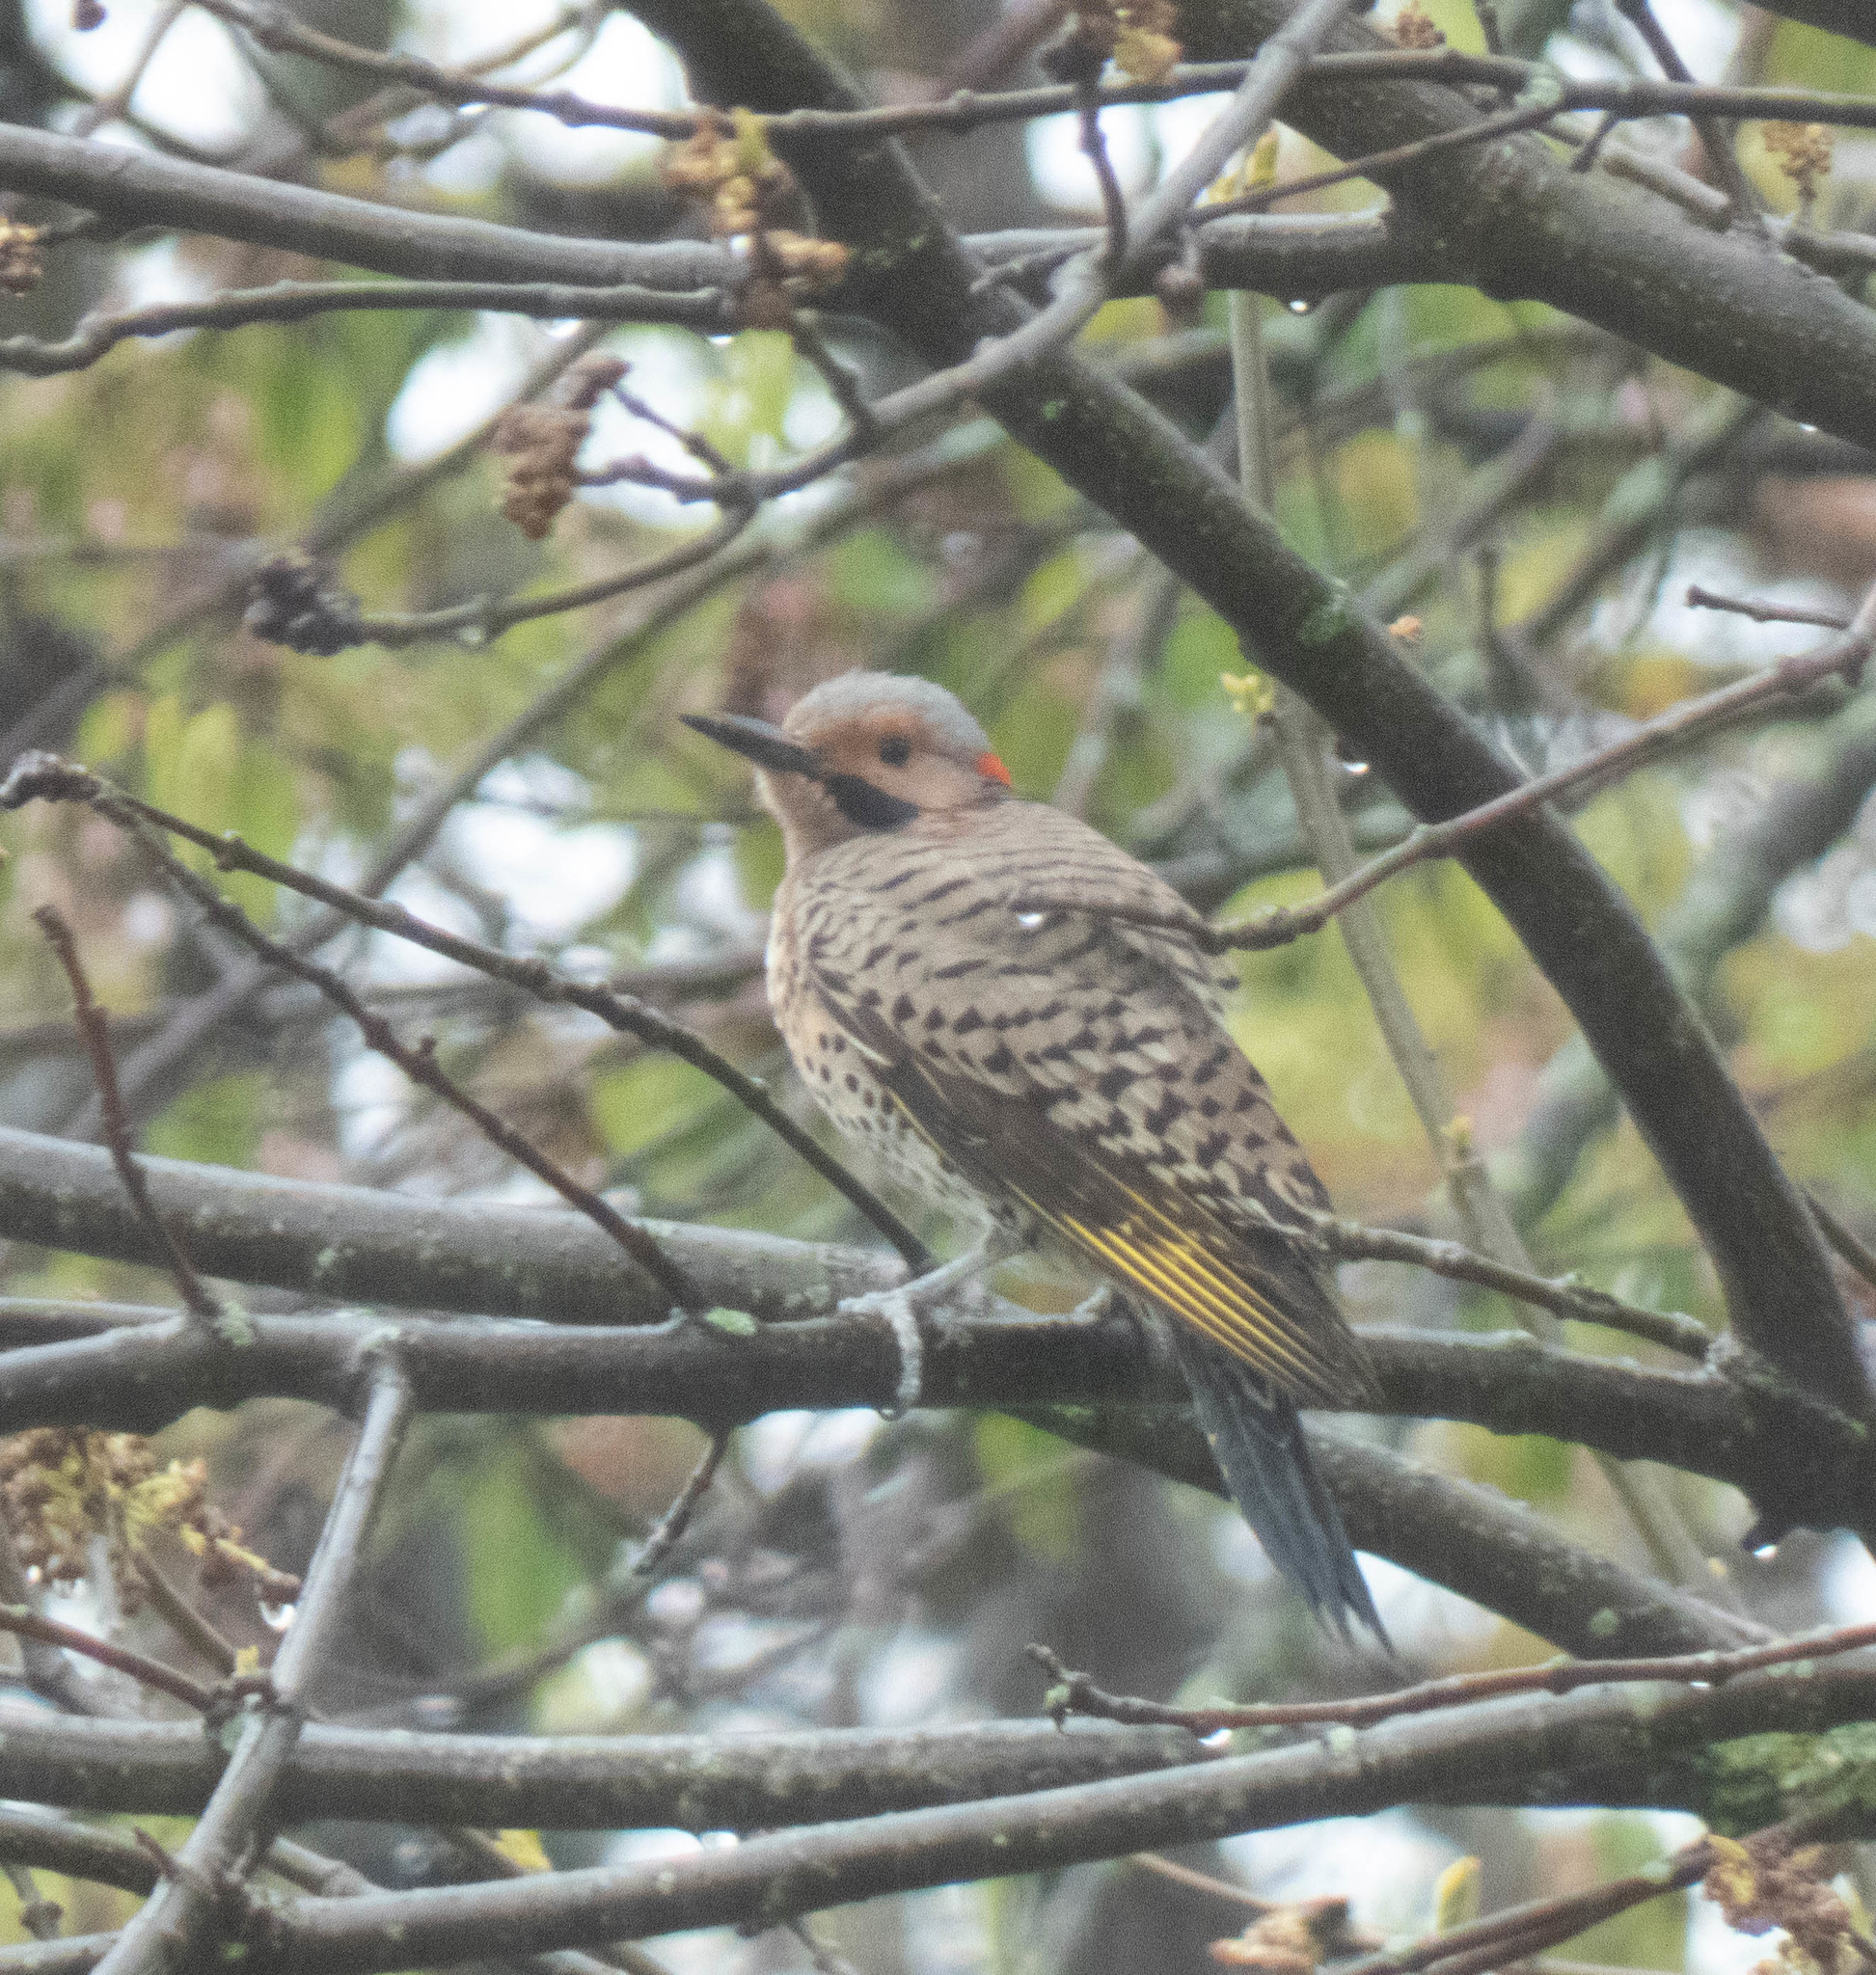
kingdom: Animalia
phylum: Chordata
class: Aves
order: Piciformes
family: Picidae
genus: Colaptes
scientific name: Colaptes auratus
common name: Northern flicker
